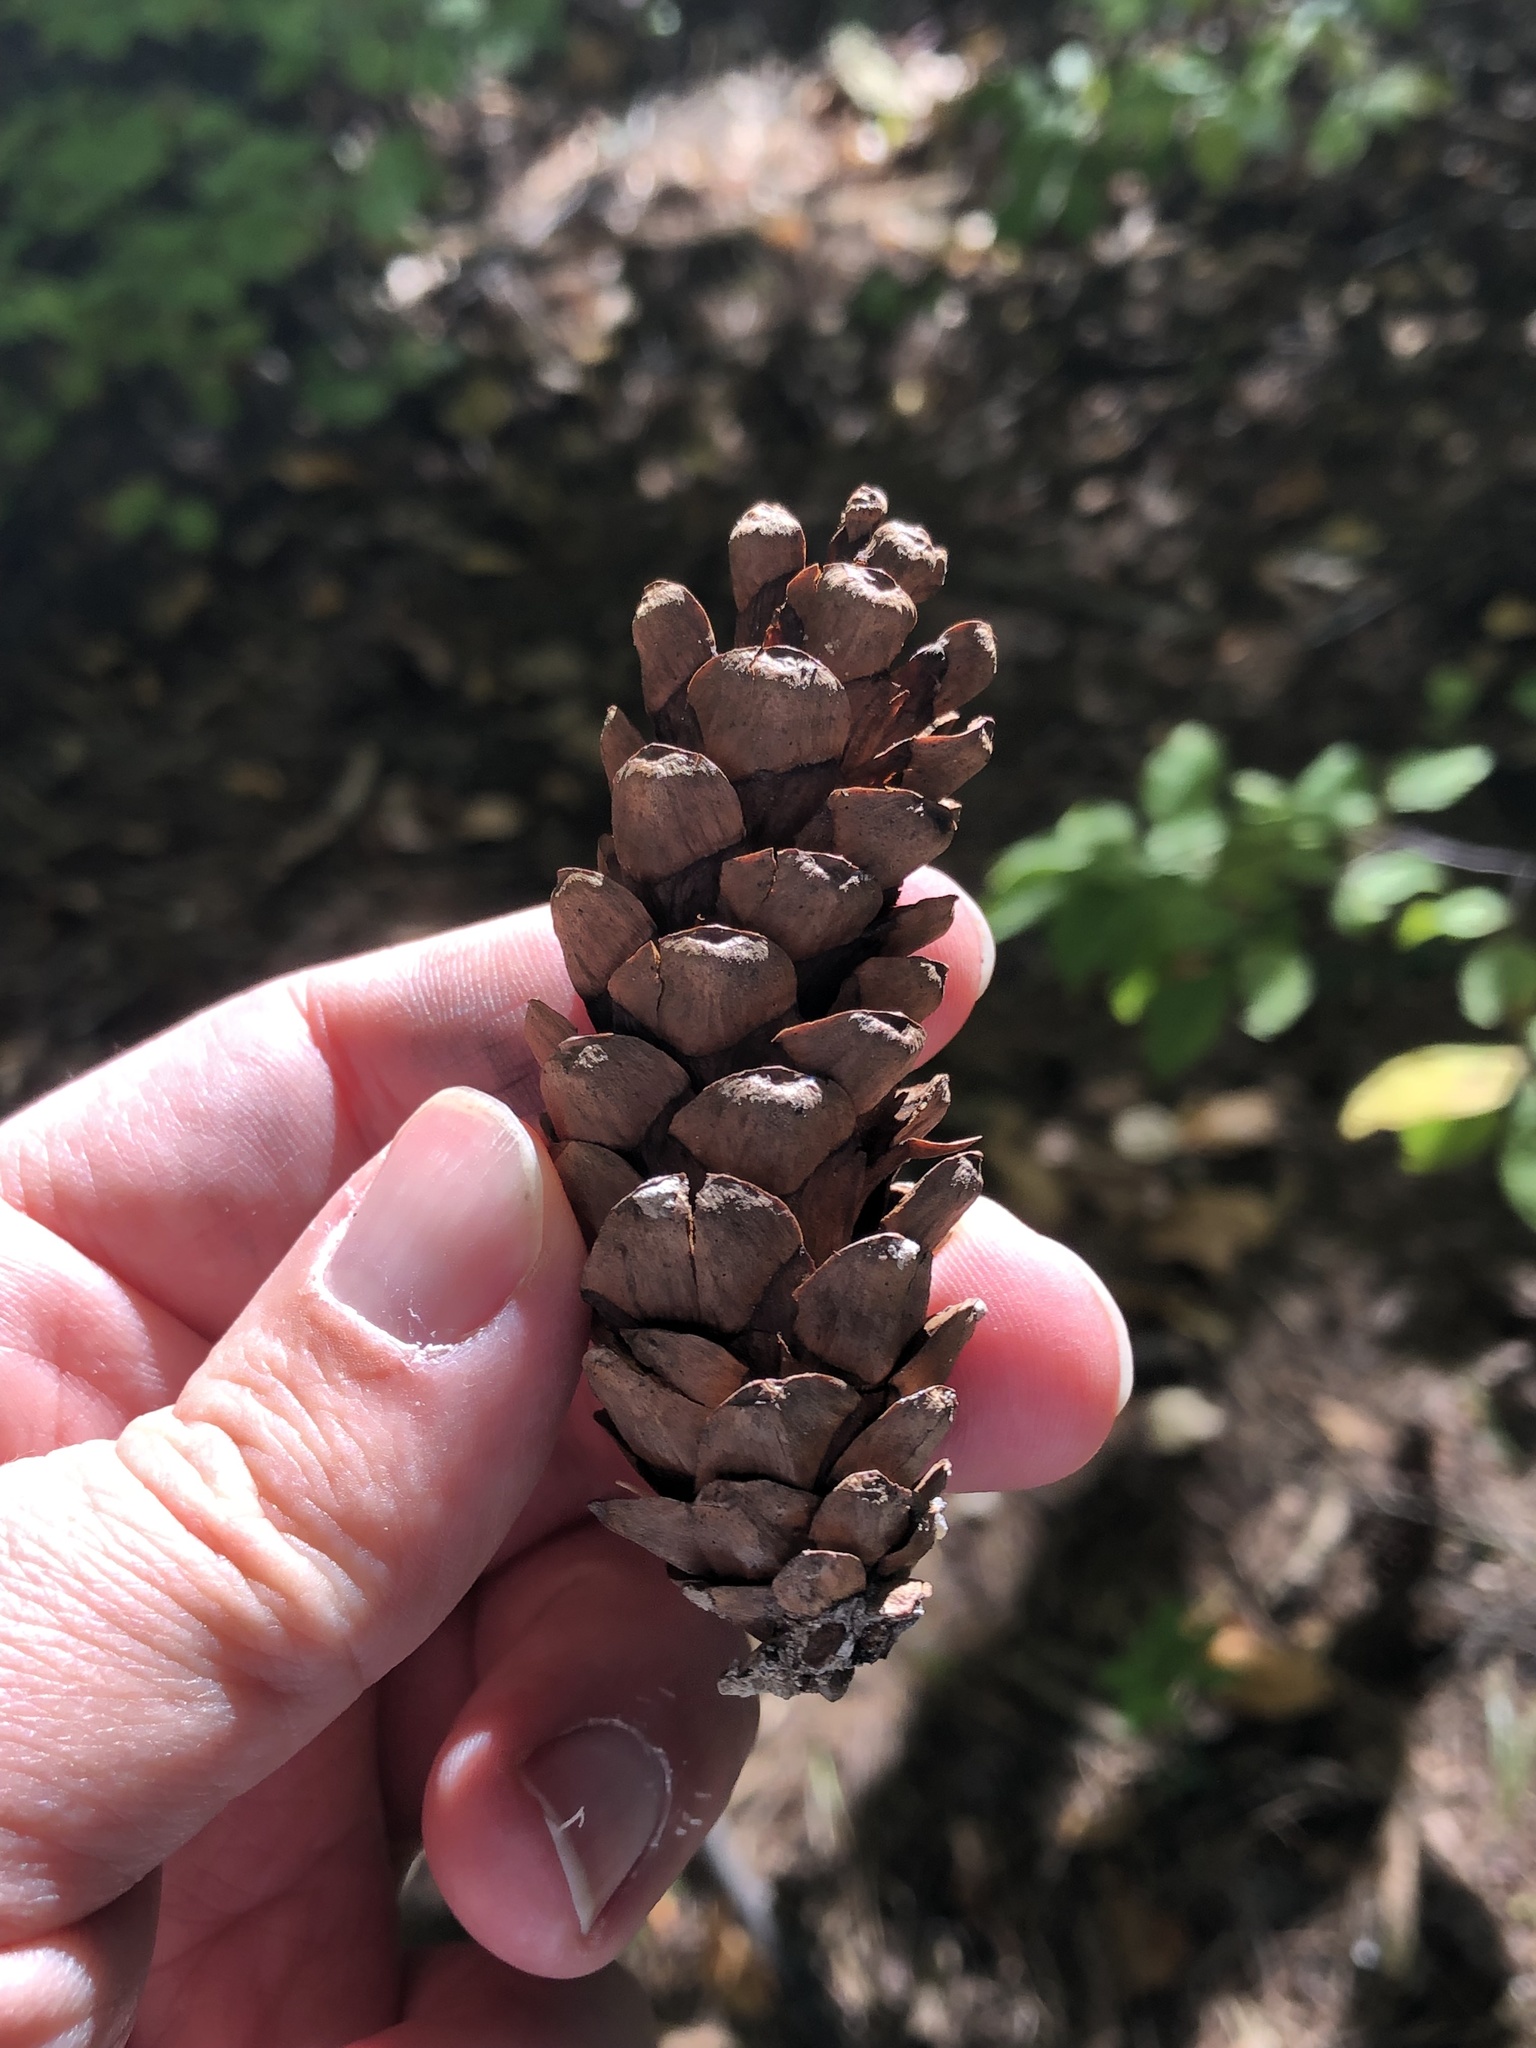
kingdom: Plantae
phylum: Tracheophyta
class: Pinopsida
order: Pinales
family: Pinaceae
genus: Pinus
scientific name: Pinus strobus
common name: Weymouth pine
